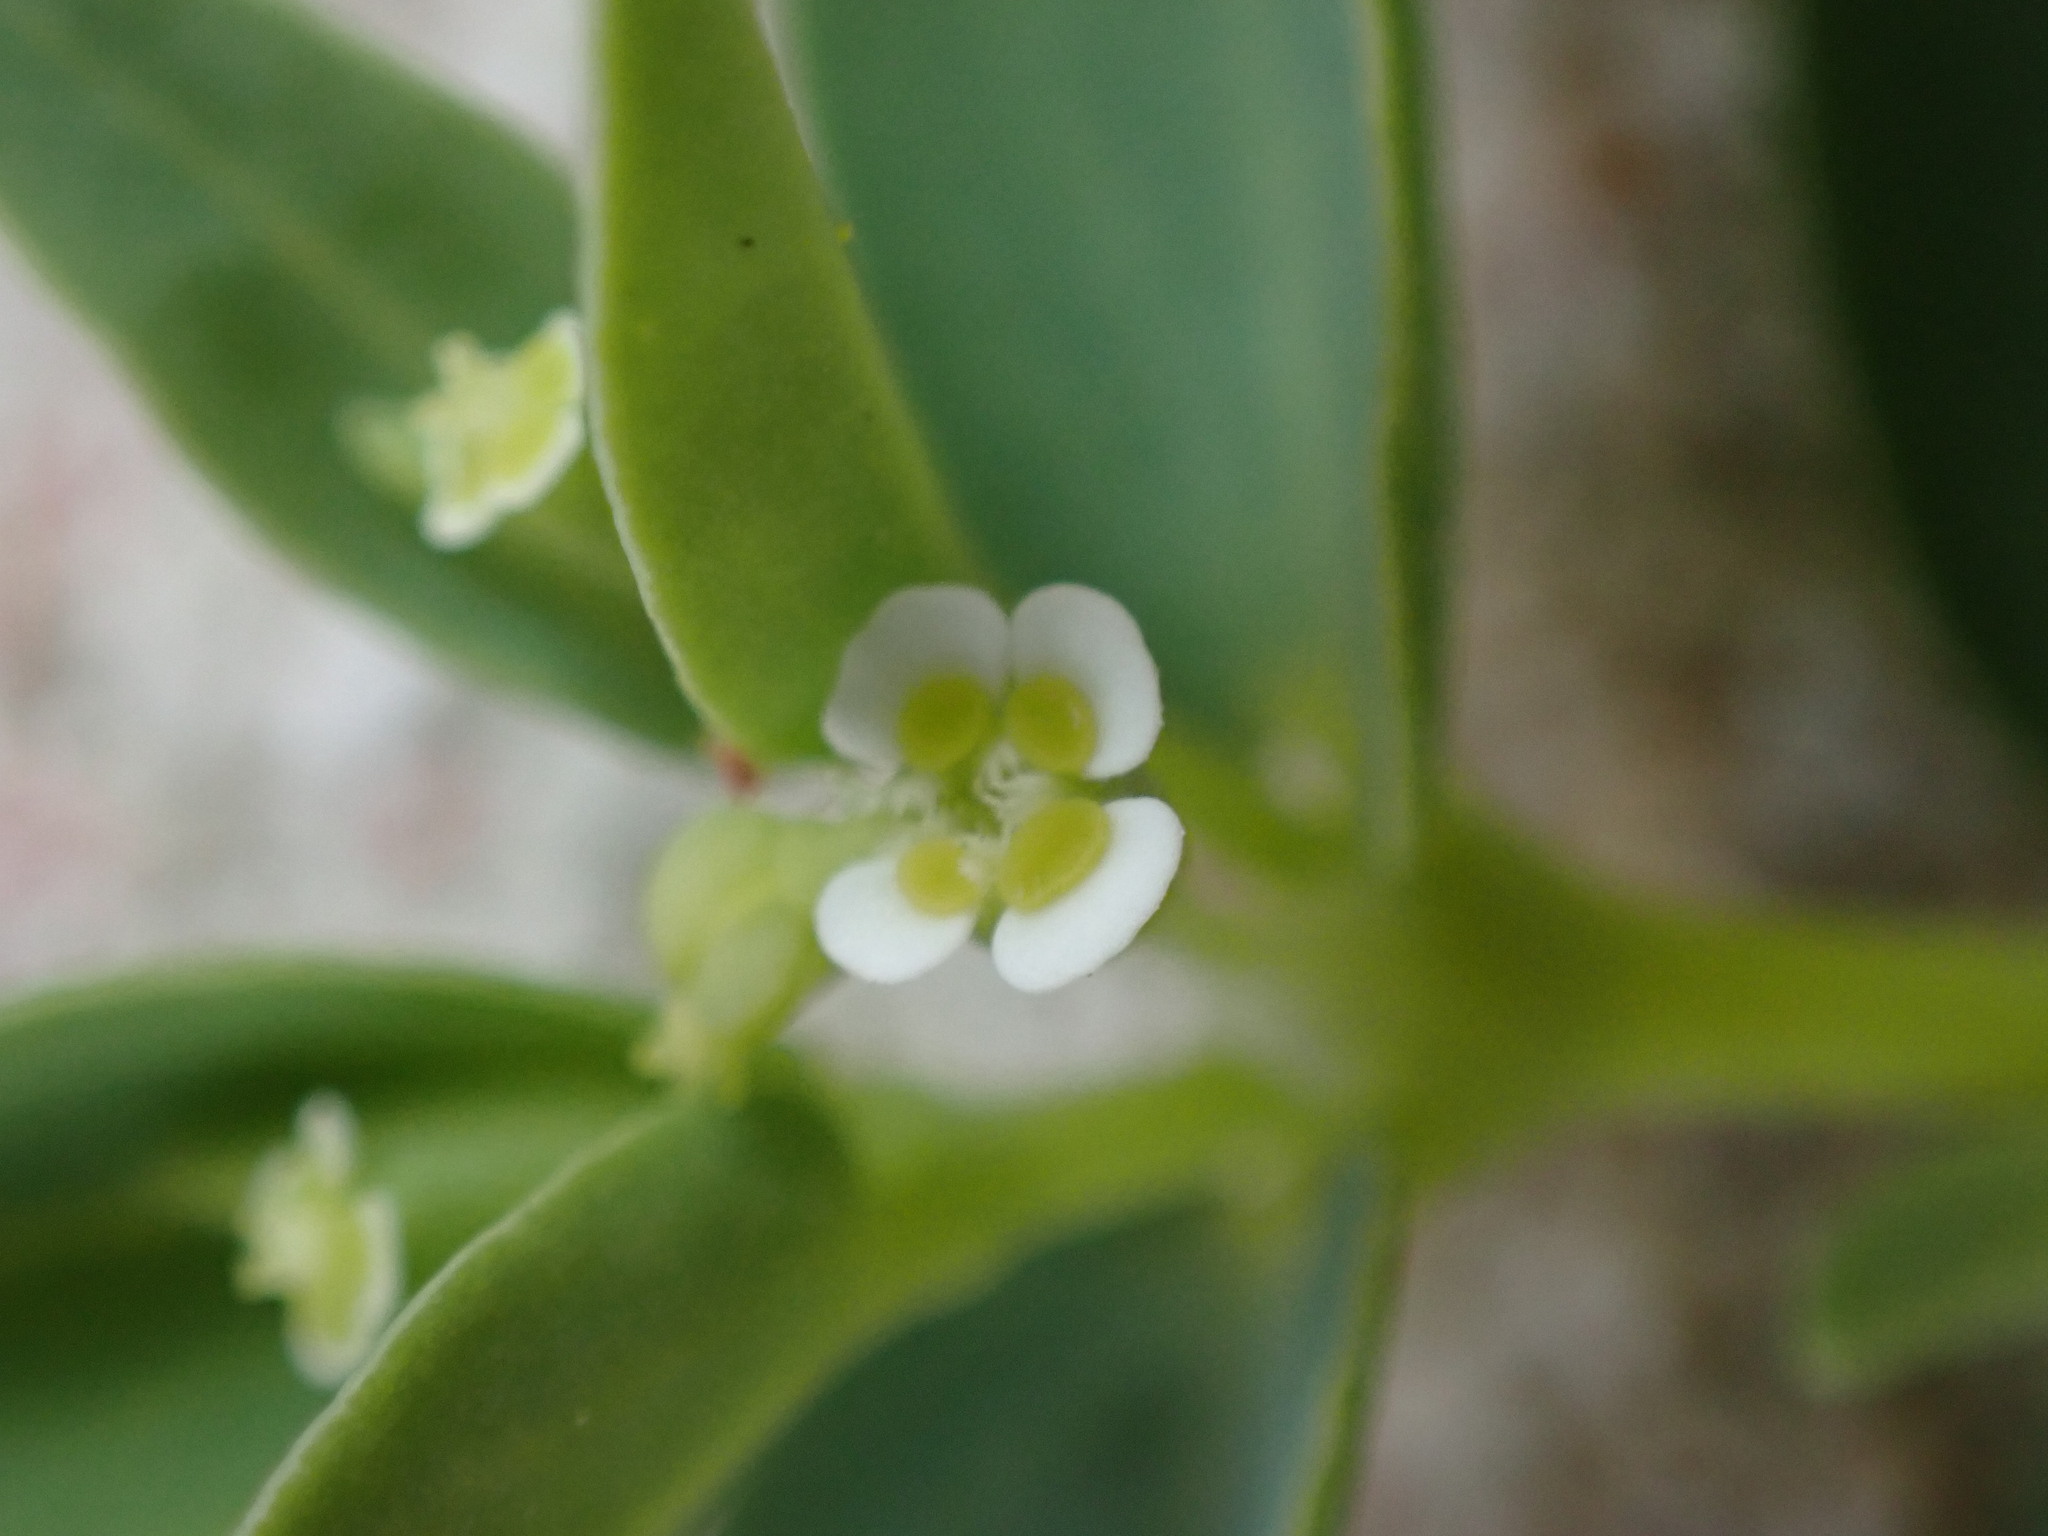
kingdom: Plantae
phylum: Tracheophyta
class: Magnoliopsida
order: Malpighiales
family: Euphorbiaceae
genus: Euphorbia
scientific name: Euphorbia mesembryanthemifolia
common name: Coastal beach sandmat
